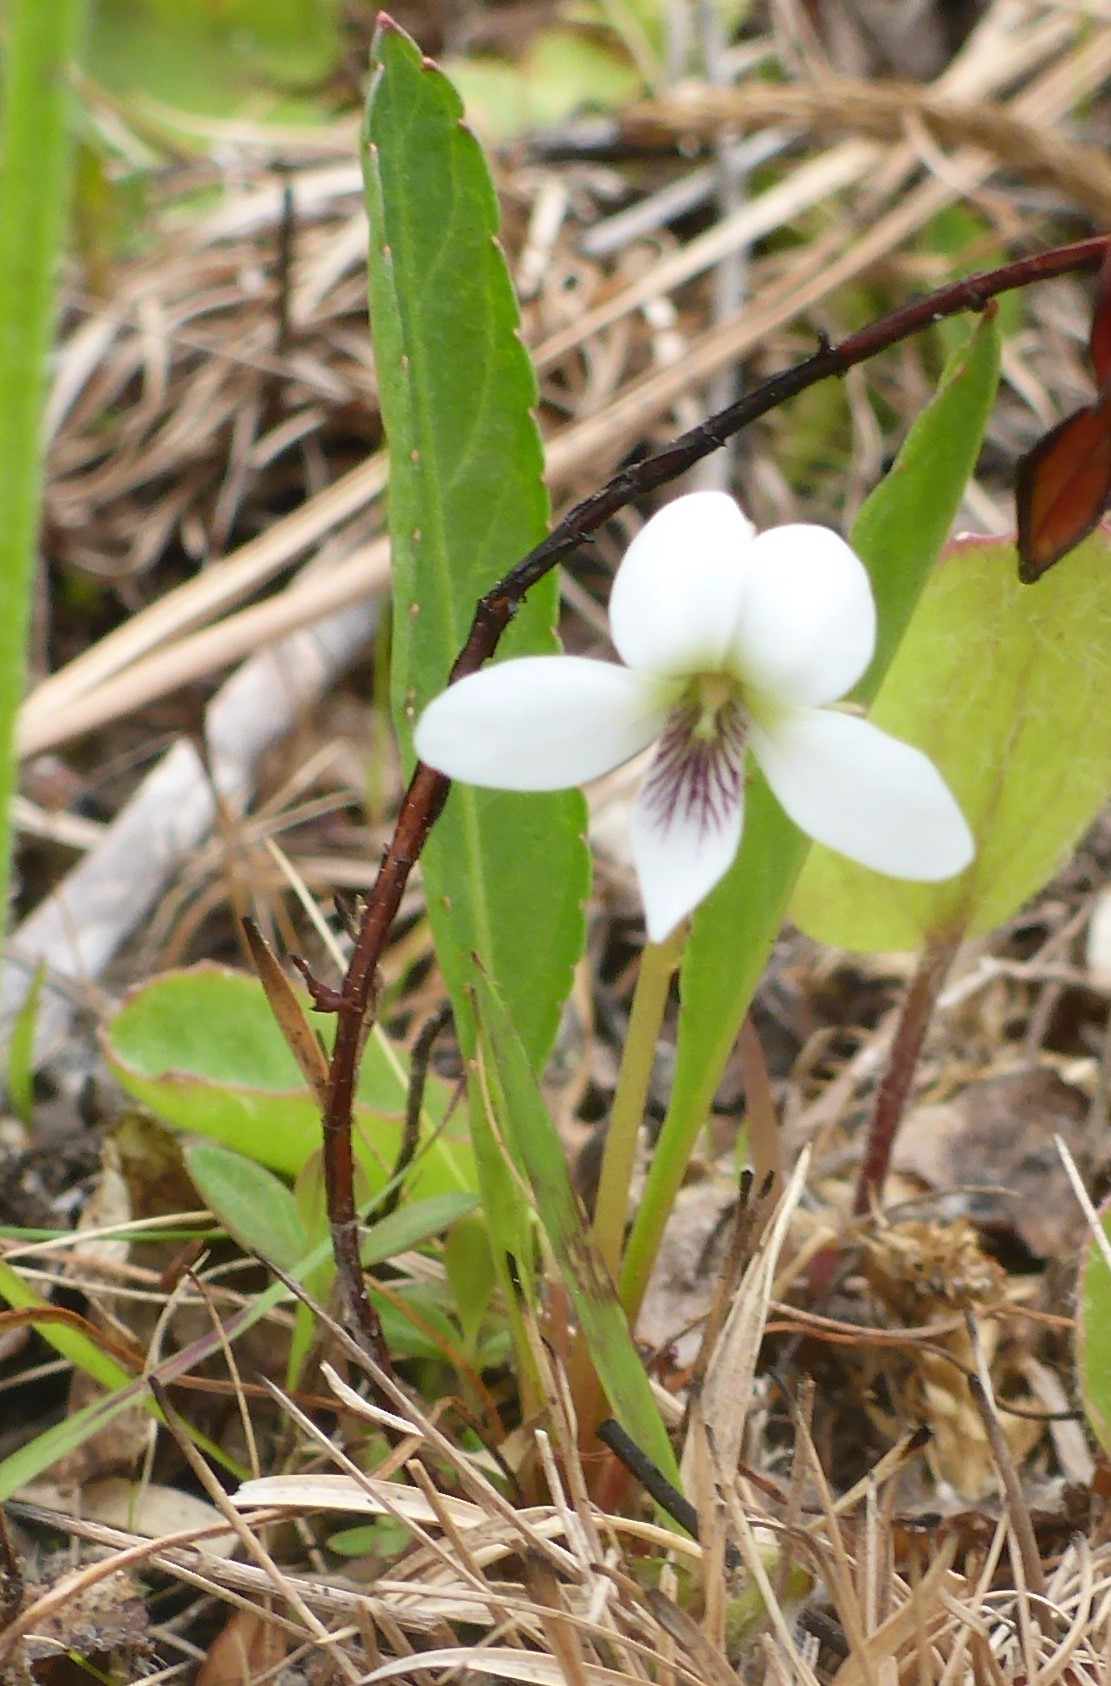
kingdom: Plantae
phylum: Tracheophyta
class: Magnoliopsida
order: Malpighiales
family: Violaceae
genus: Viola
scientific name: Viola lanceolata
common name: Bog white violet
